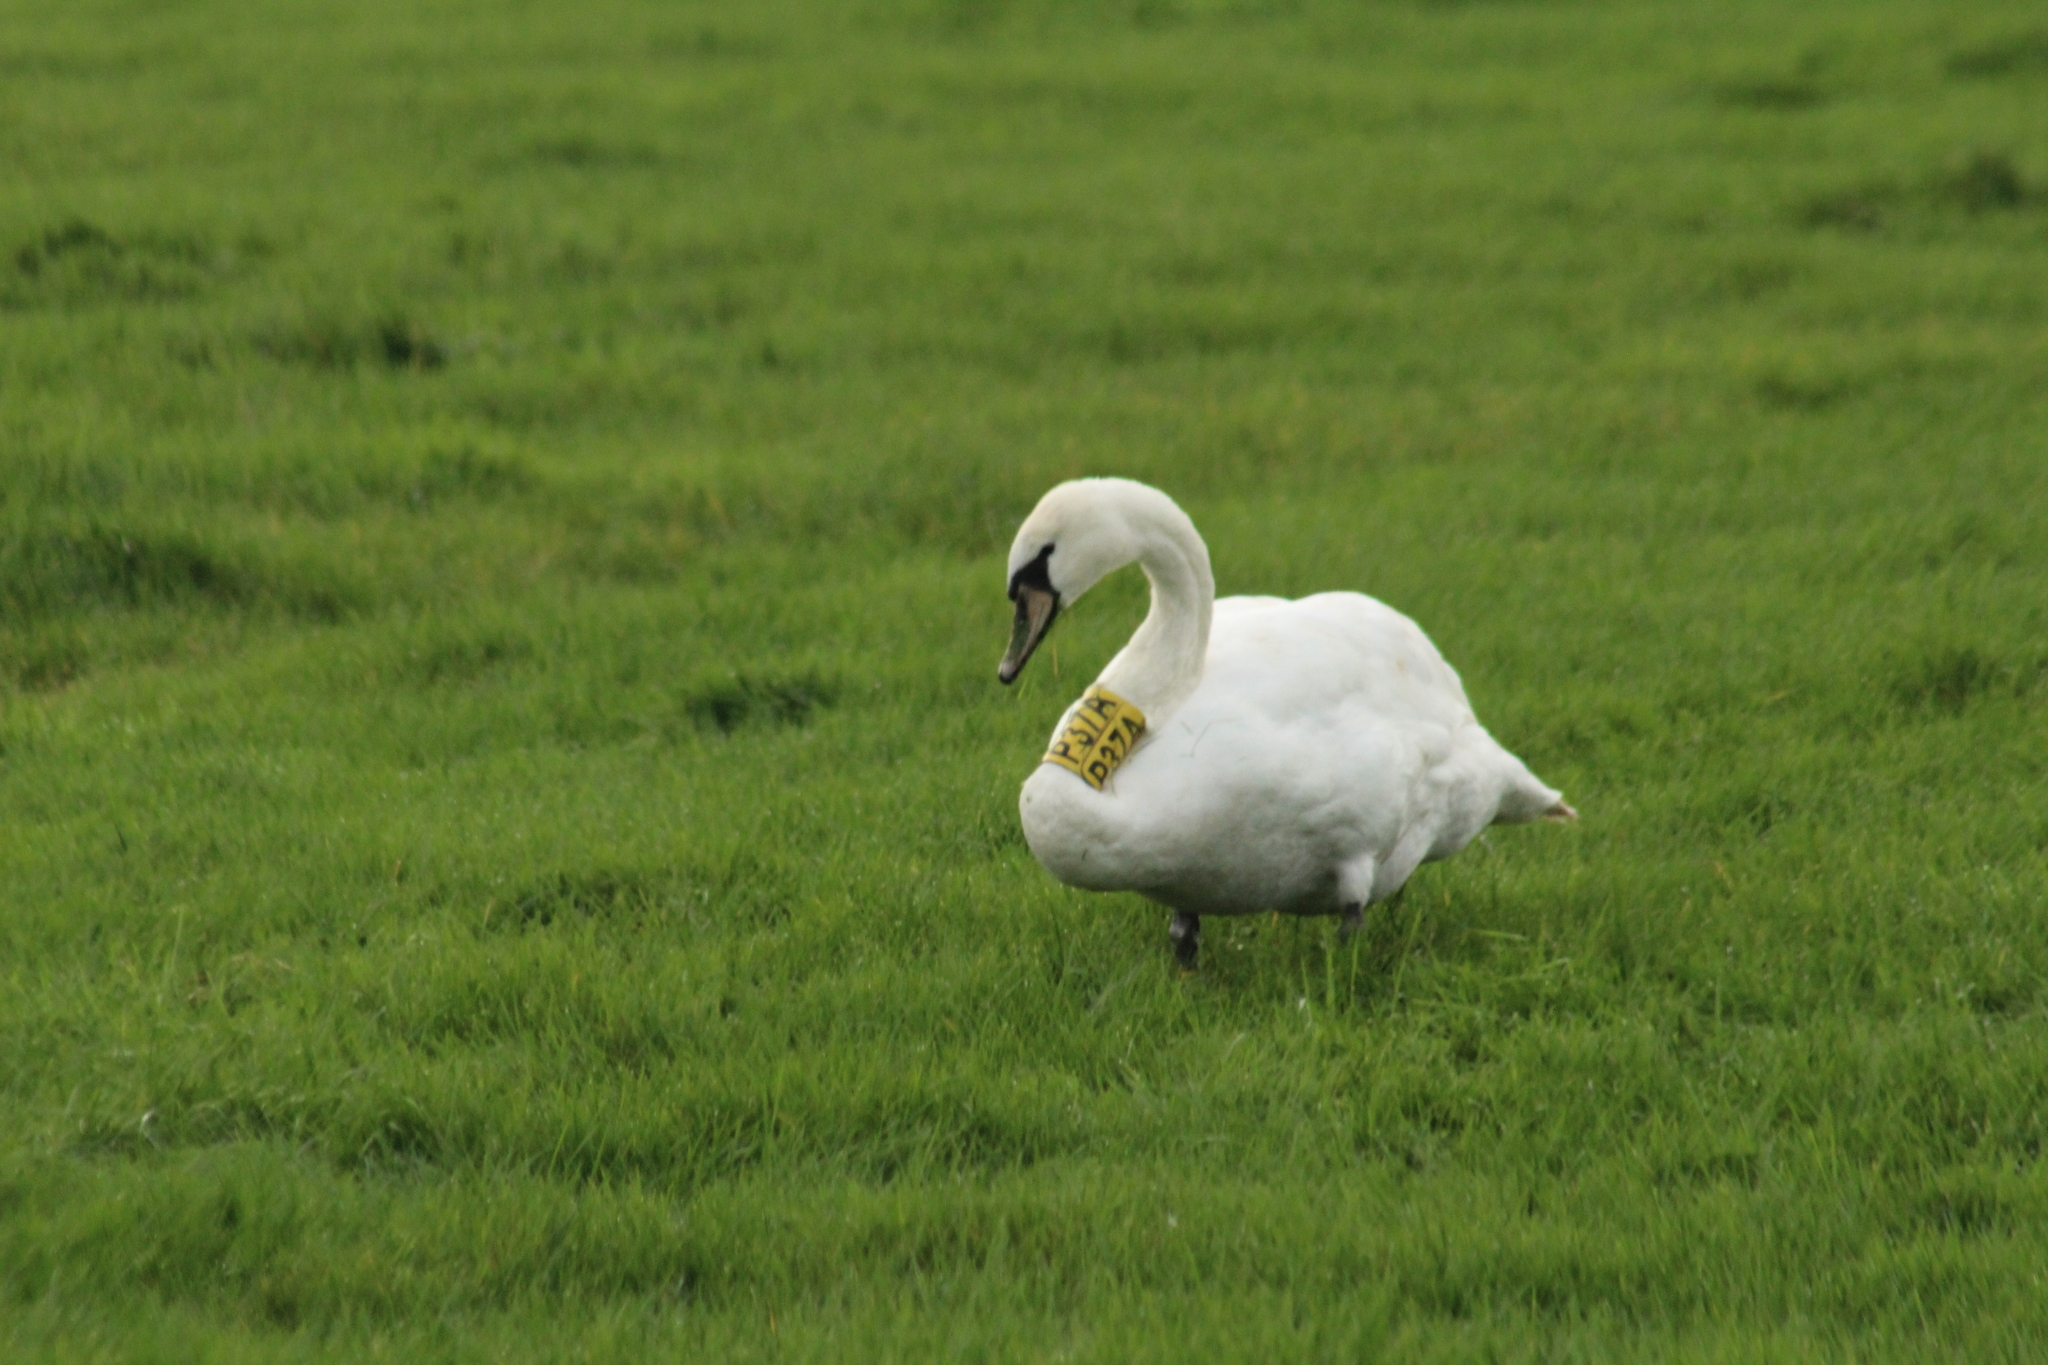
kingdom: Animalia
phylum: Chordata
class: Aves
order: Anseriformes
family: Anatidae
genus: Cygnus
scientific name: Cygnus olor
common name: Mute swan
